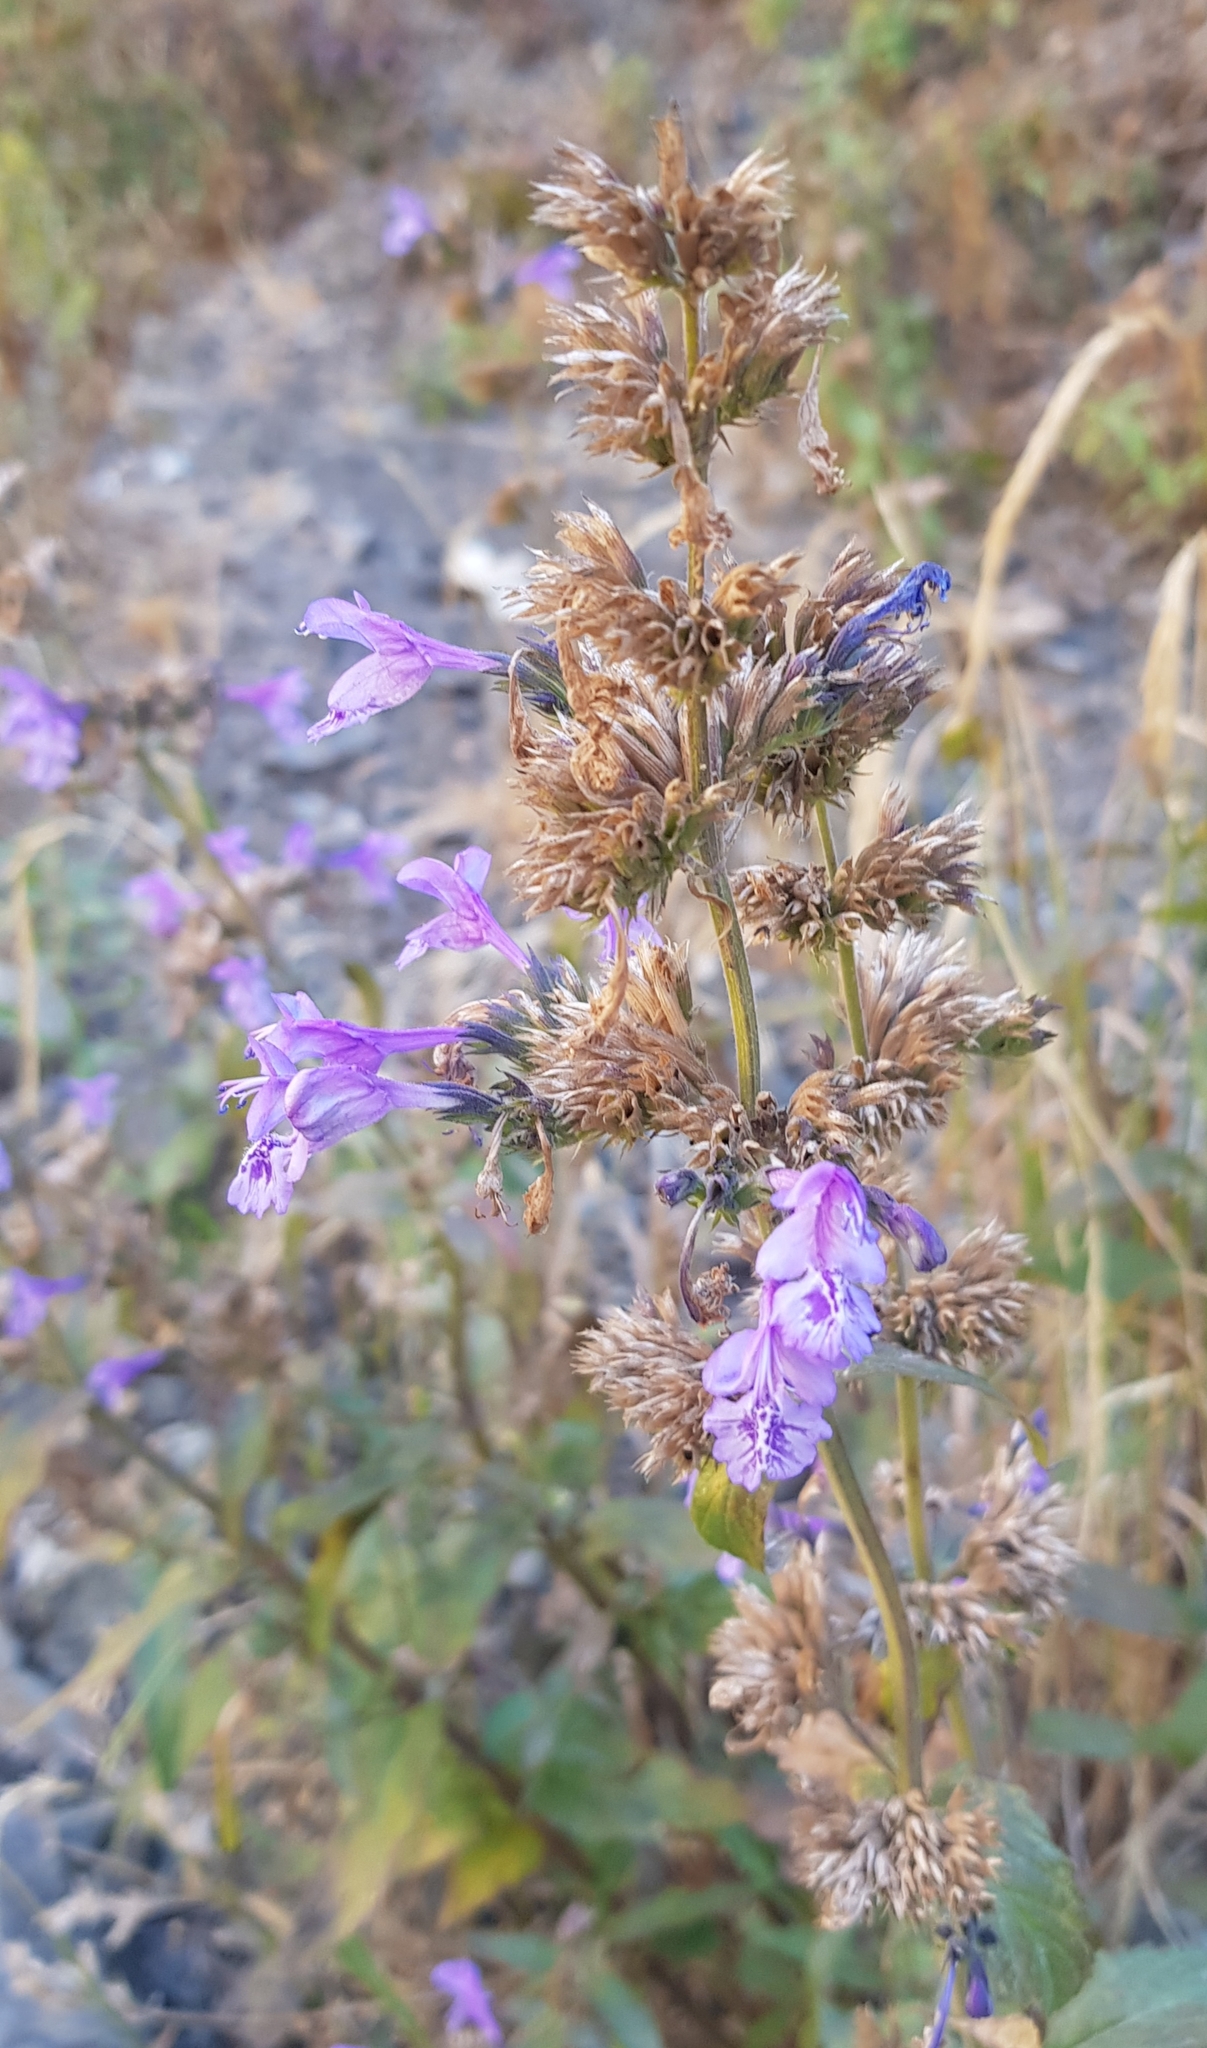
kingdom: Plantae
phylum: Tracheophyta
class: Magnoliopsida
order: Lamiales
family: Lamiaceae
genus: Nepeta
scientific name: Nepeta sibirica
